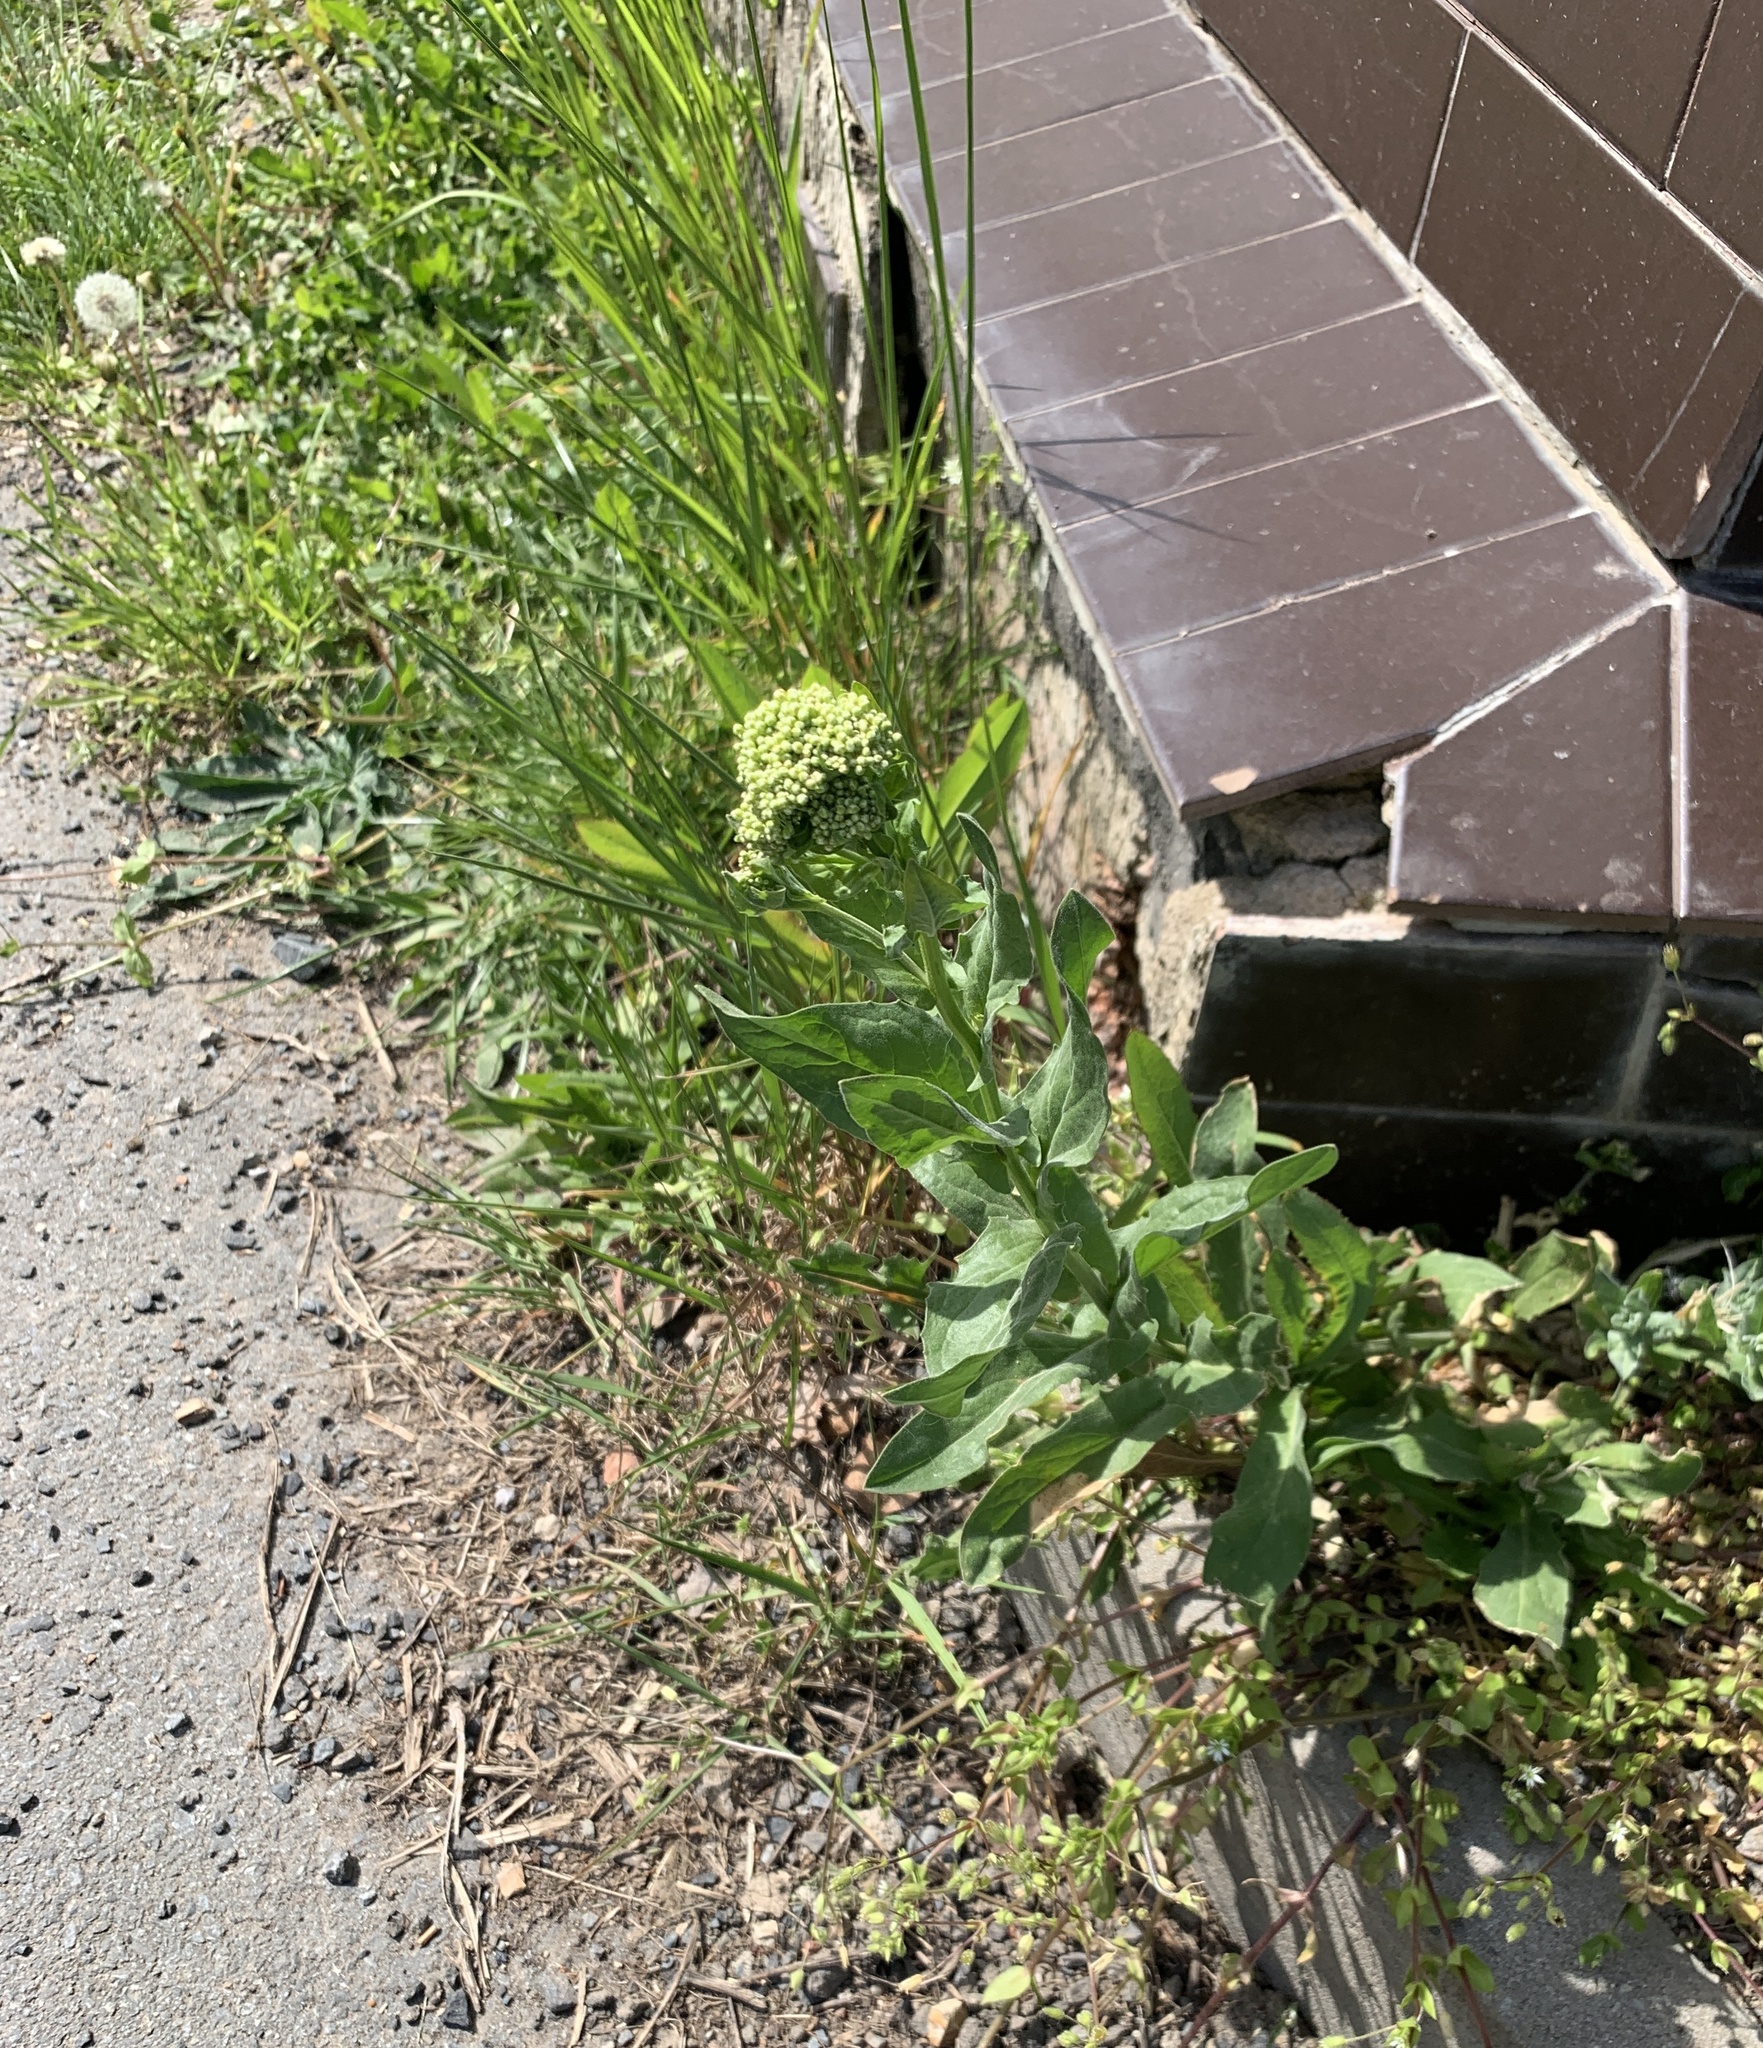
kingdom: Plantae
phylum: Tracheophyta
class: Magnoliopsida
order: Brassicales
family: Brassicaceae
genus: Lepidium
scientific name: Lepidium draba
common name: Hoary cress
